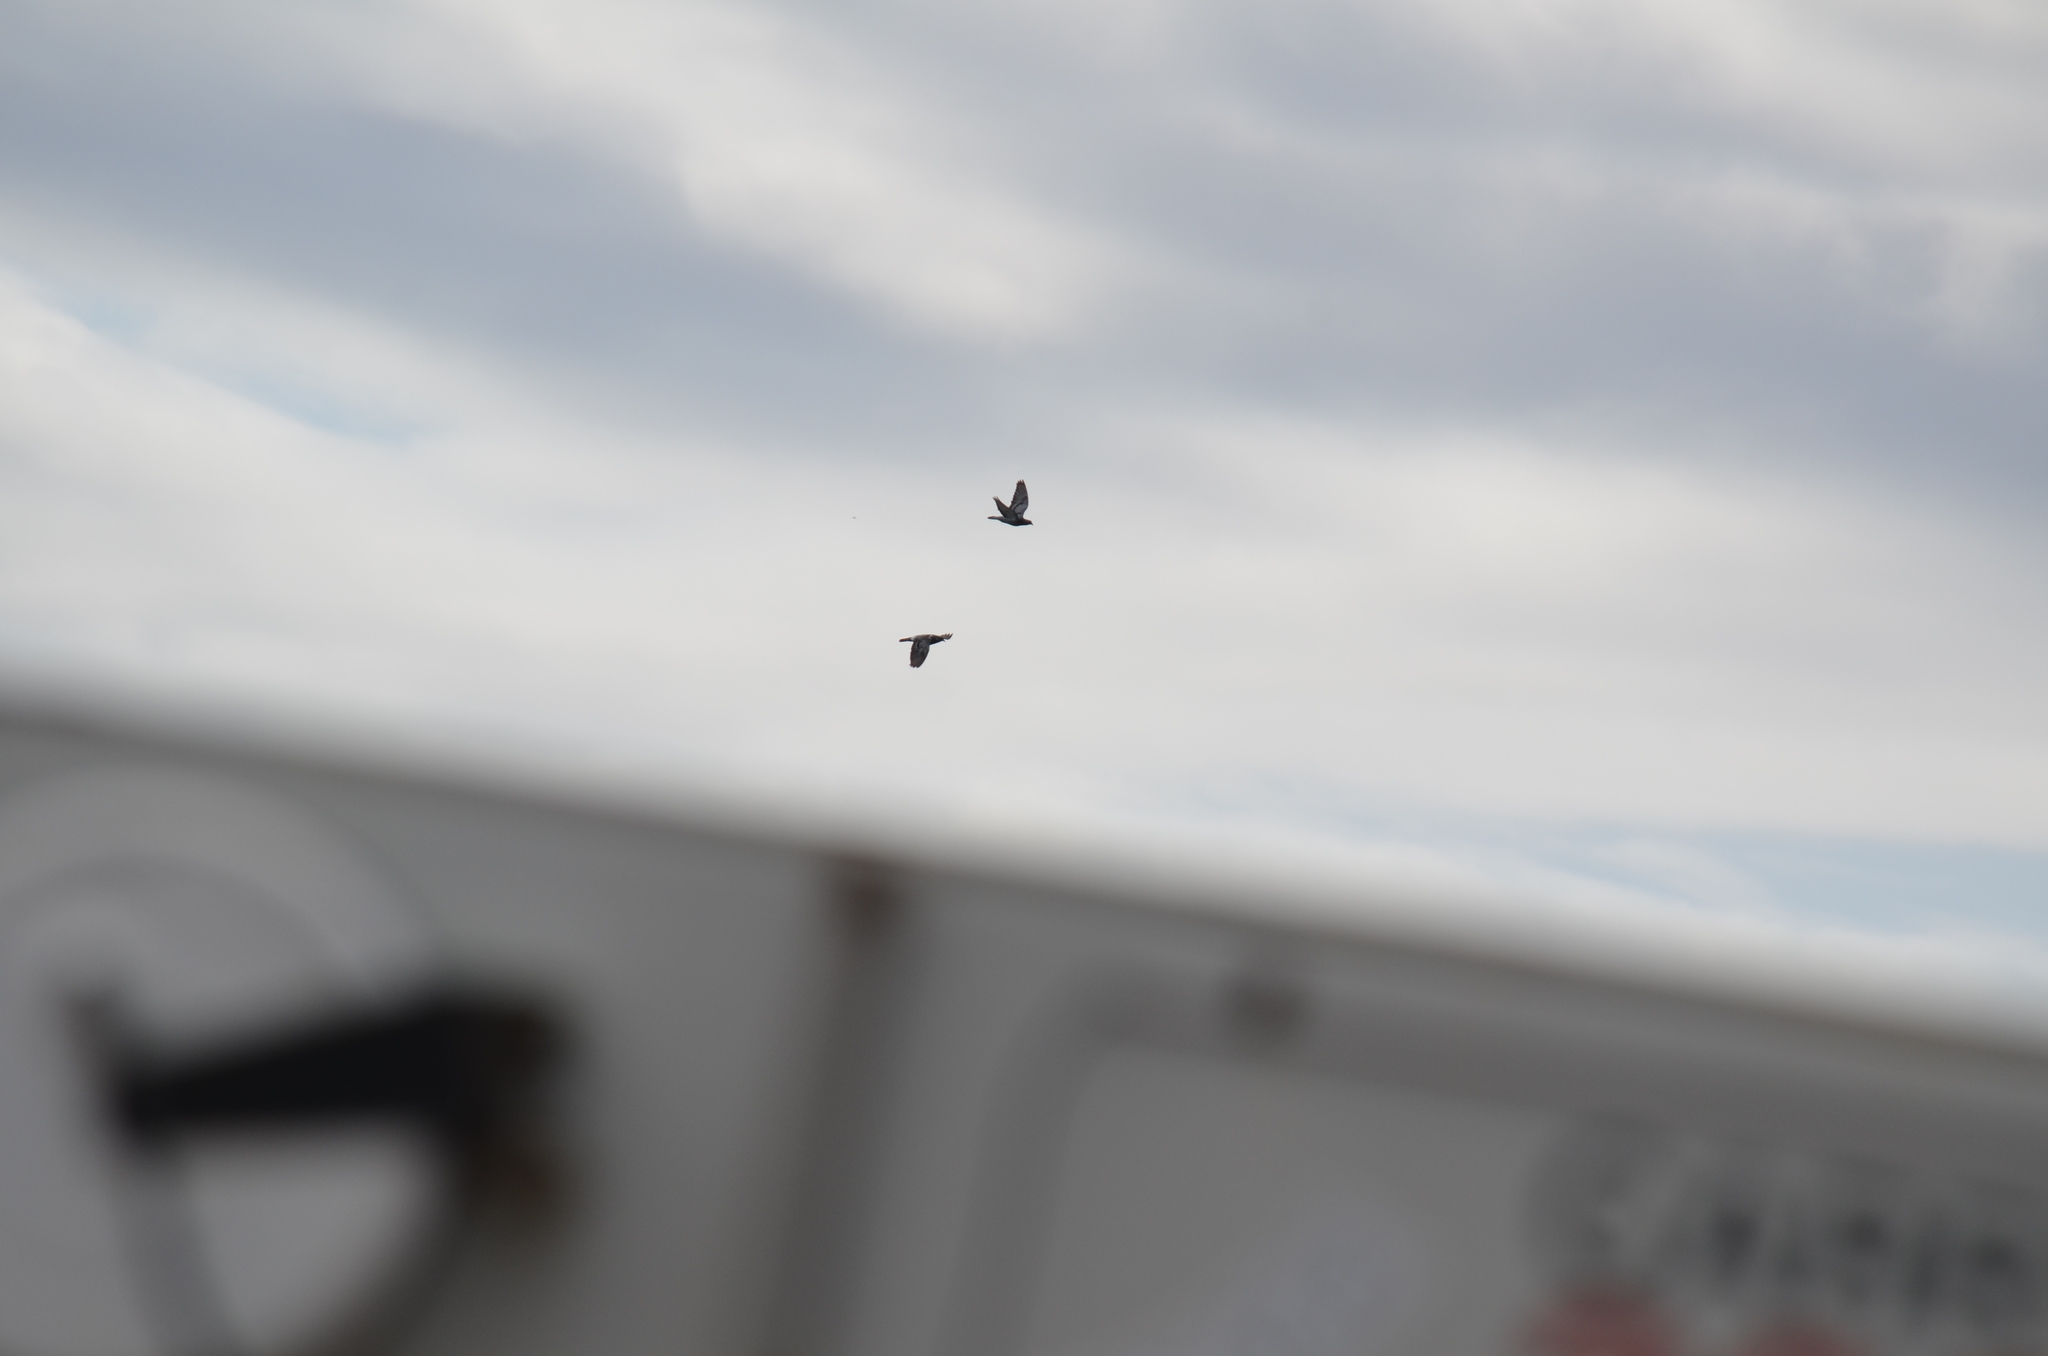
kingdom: Animalia
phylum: Chordata
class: Aves
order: Columbiformes
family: Columbidae
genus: Columba
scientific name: Columba livia
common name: Rock pigeon
